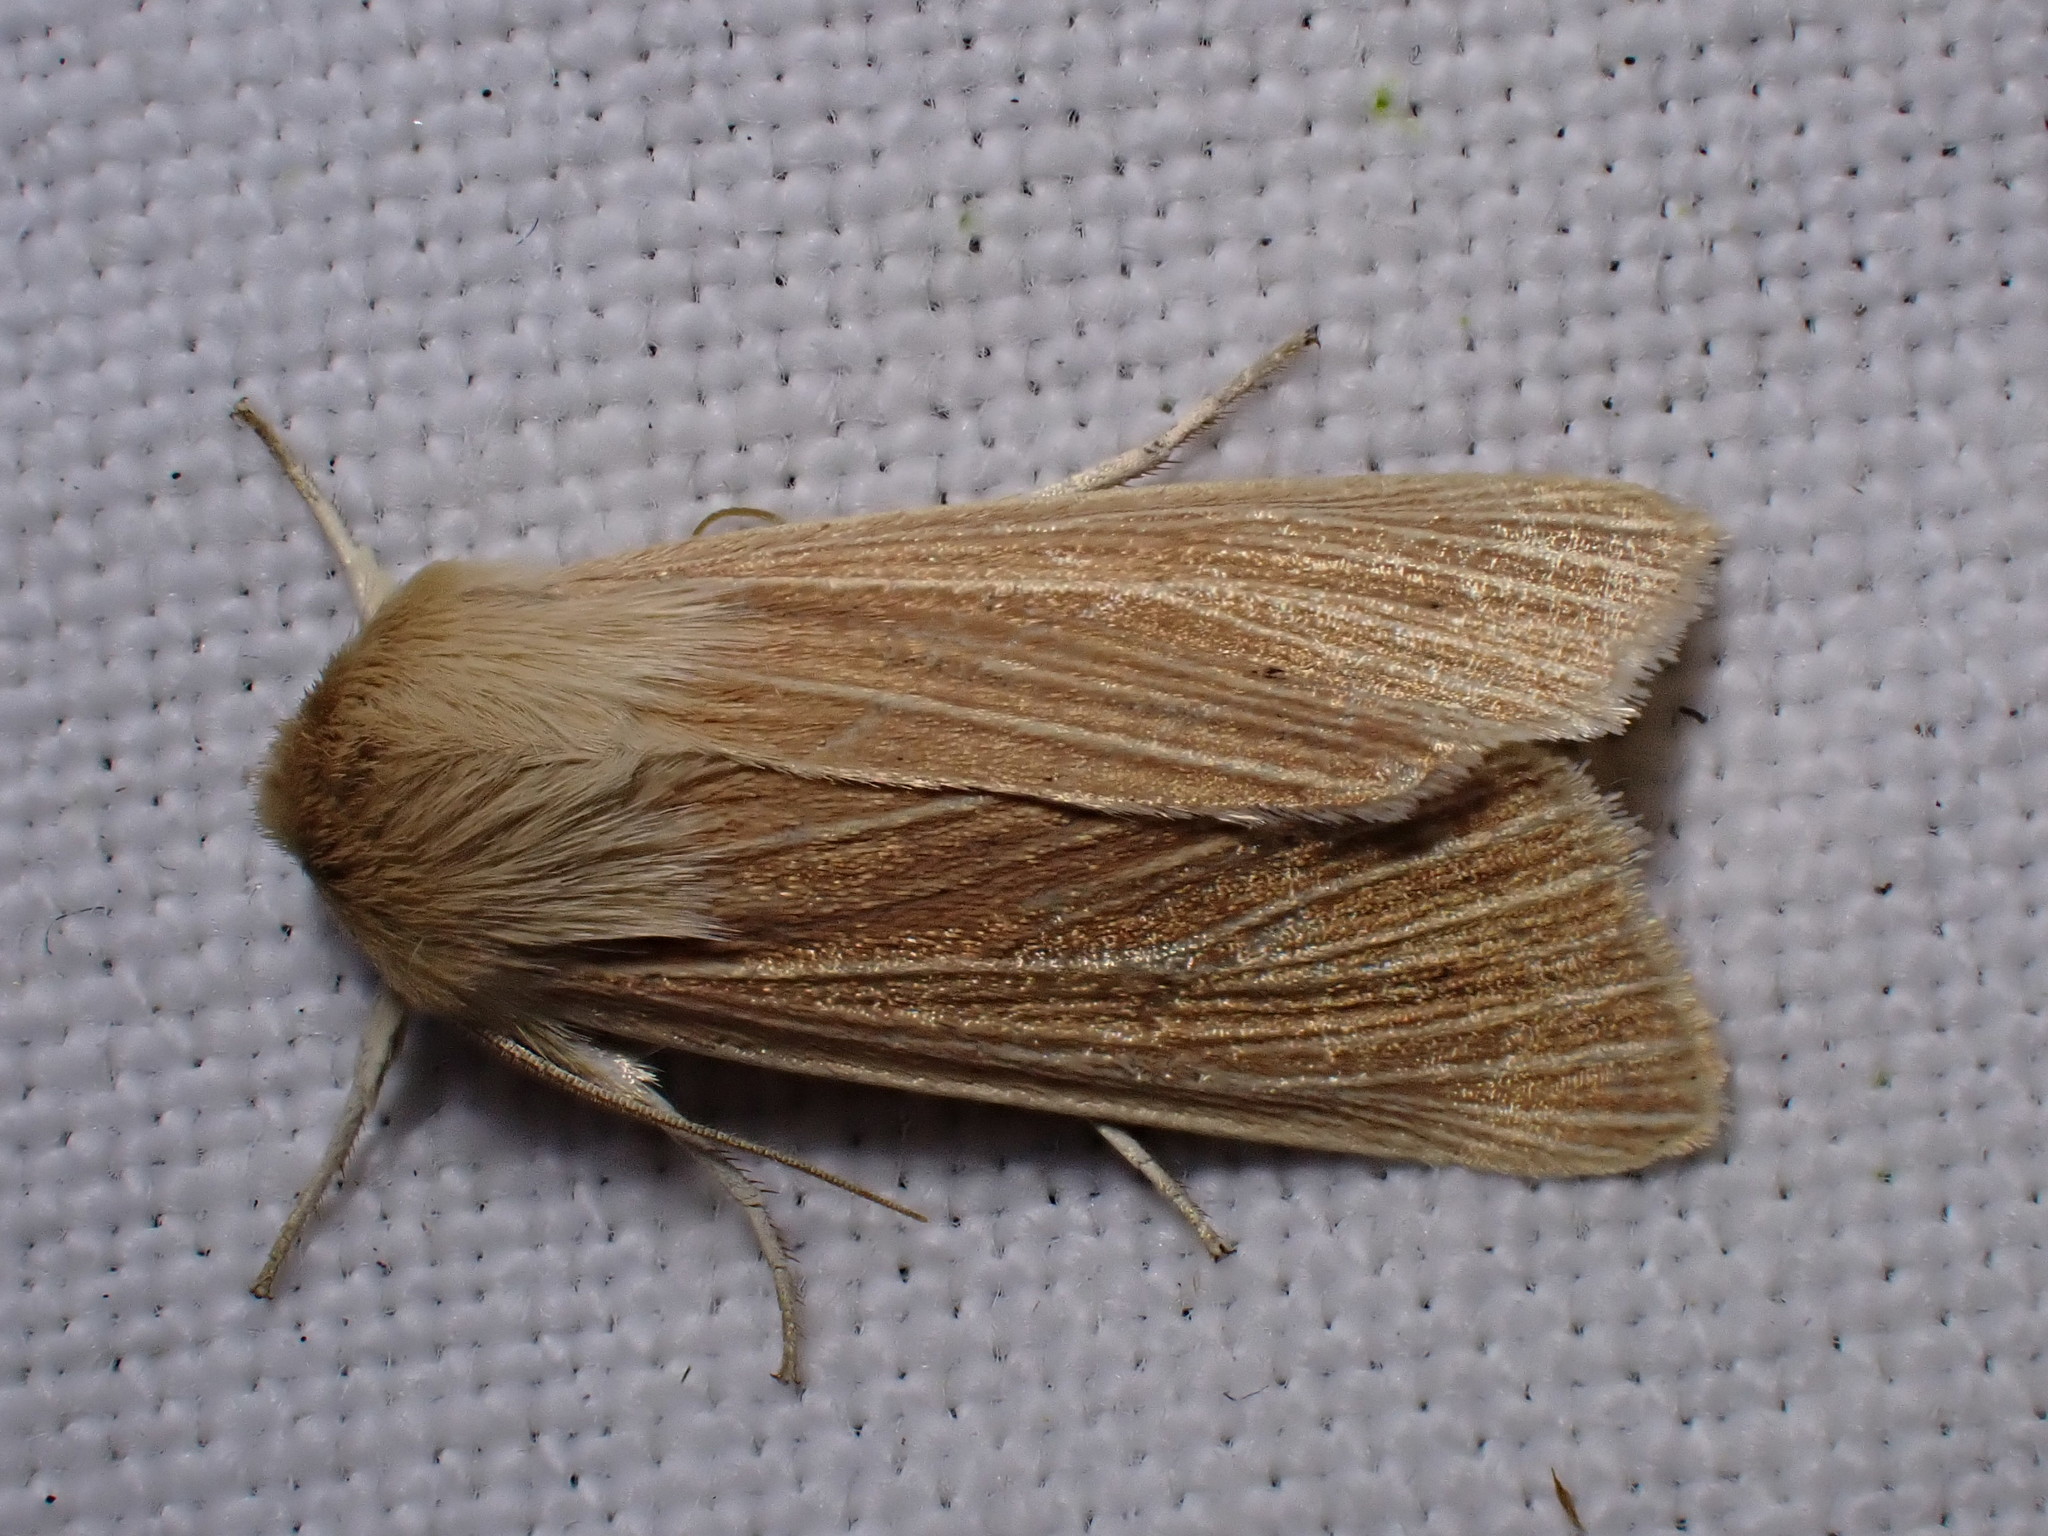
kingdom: Animalia
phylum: Arthropoda
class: Insecta
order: Lepidoptera
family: Noctuidae
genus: Mythimna
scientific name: Mythimna pallens
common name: Common wainscot
